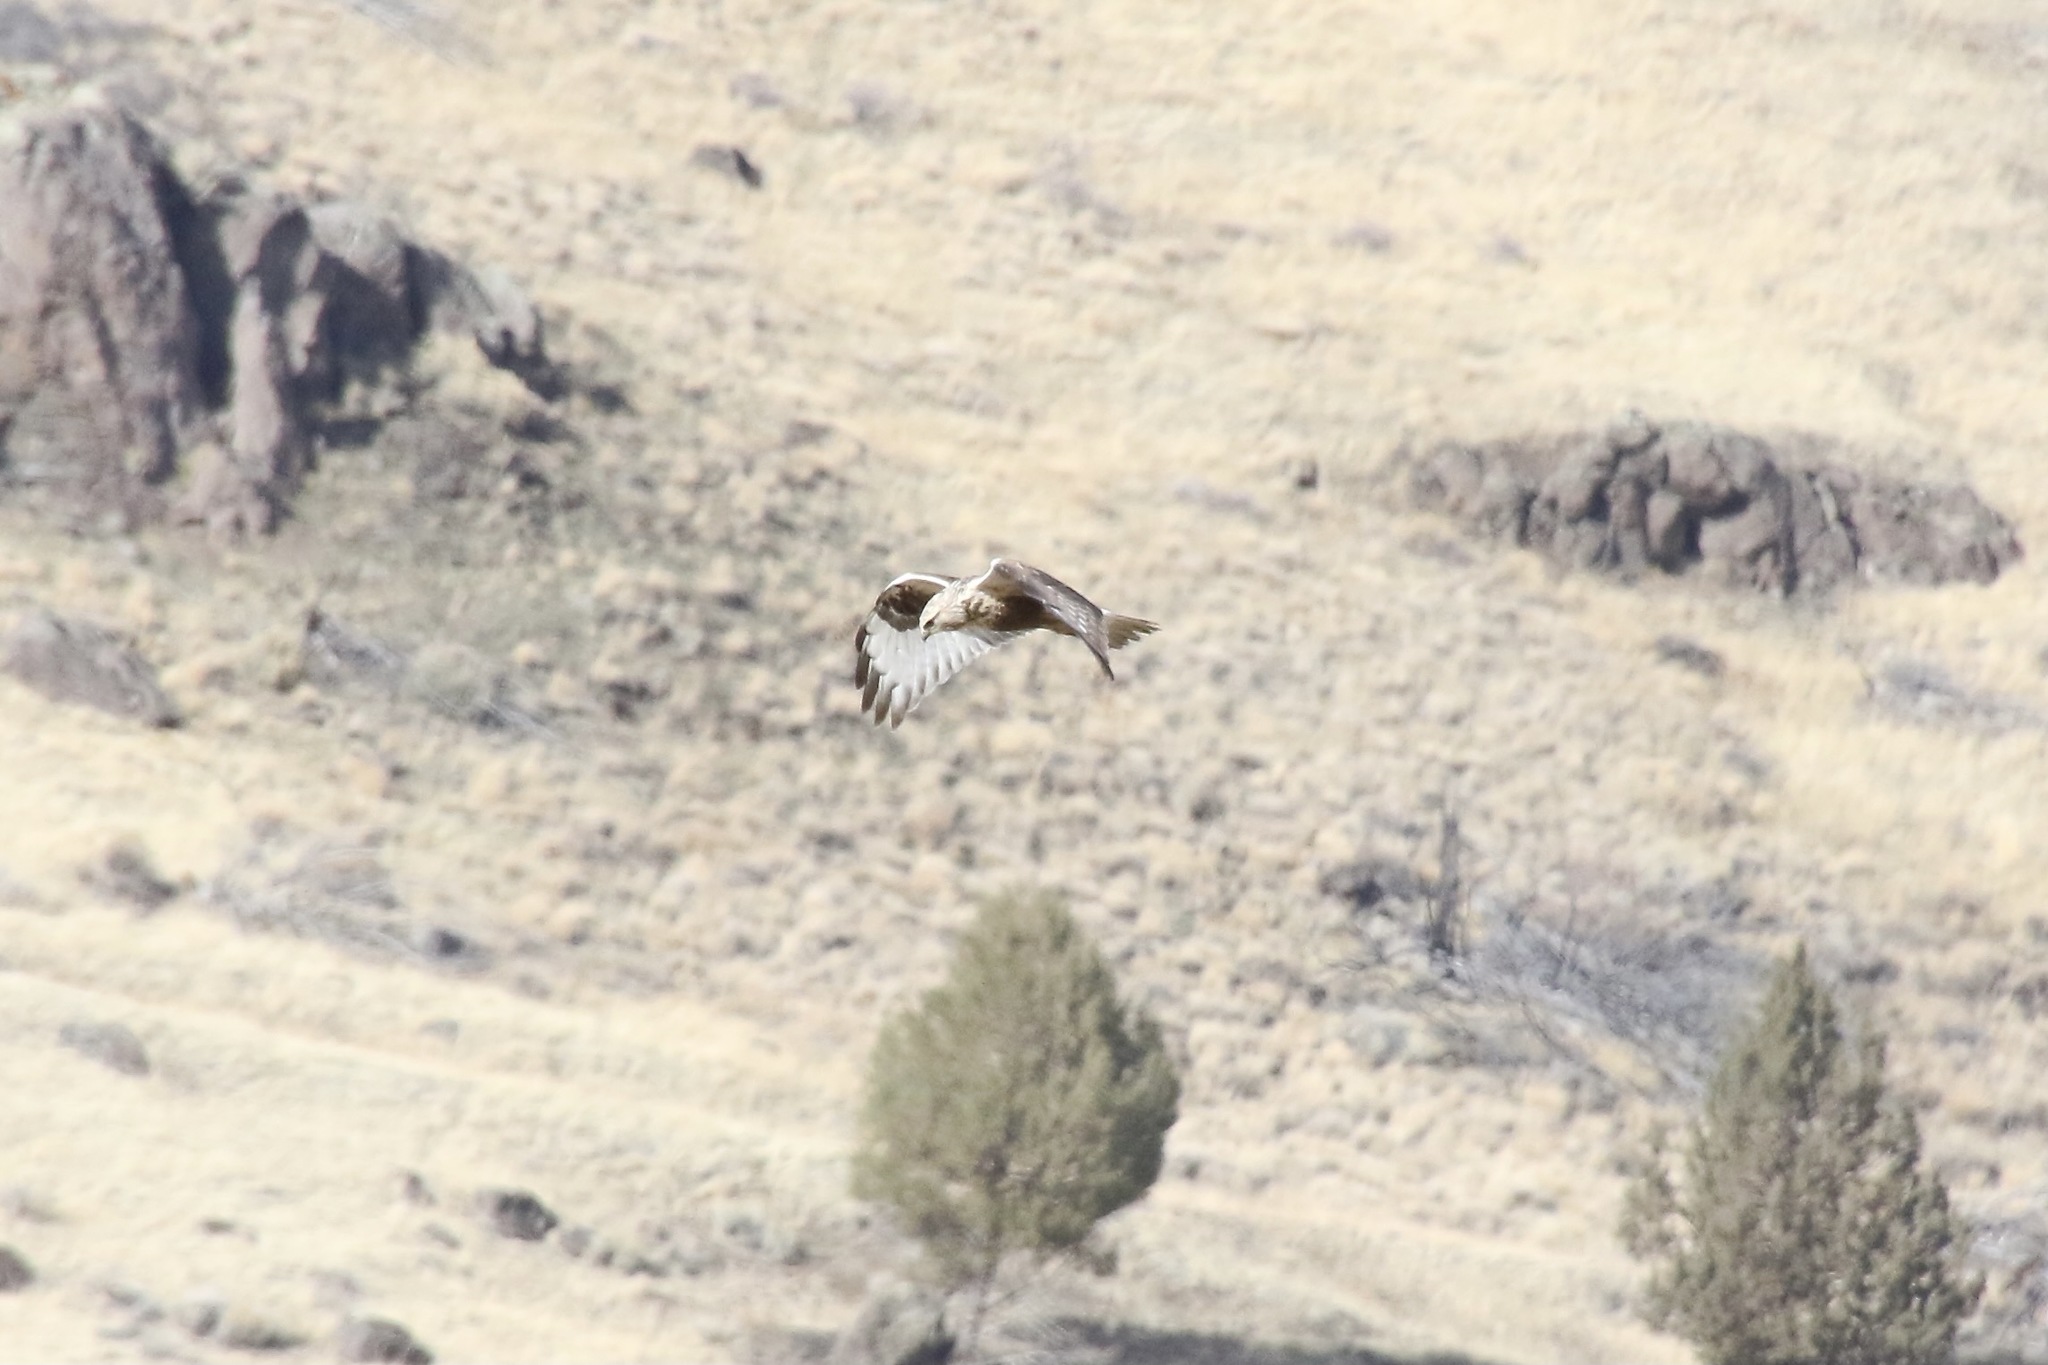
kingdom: Animalia
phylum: Chordata
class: Aves
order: Accipitriformes
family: Accipitridae
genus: Buteo
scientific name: Buteo lagopus
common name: Rough-legged buzzard
